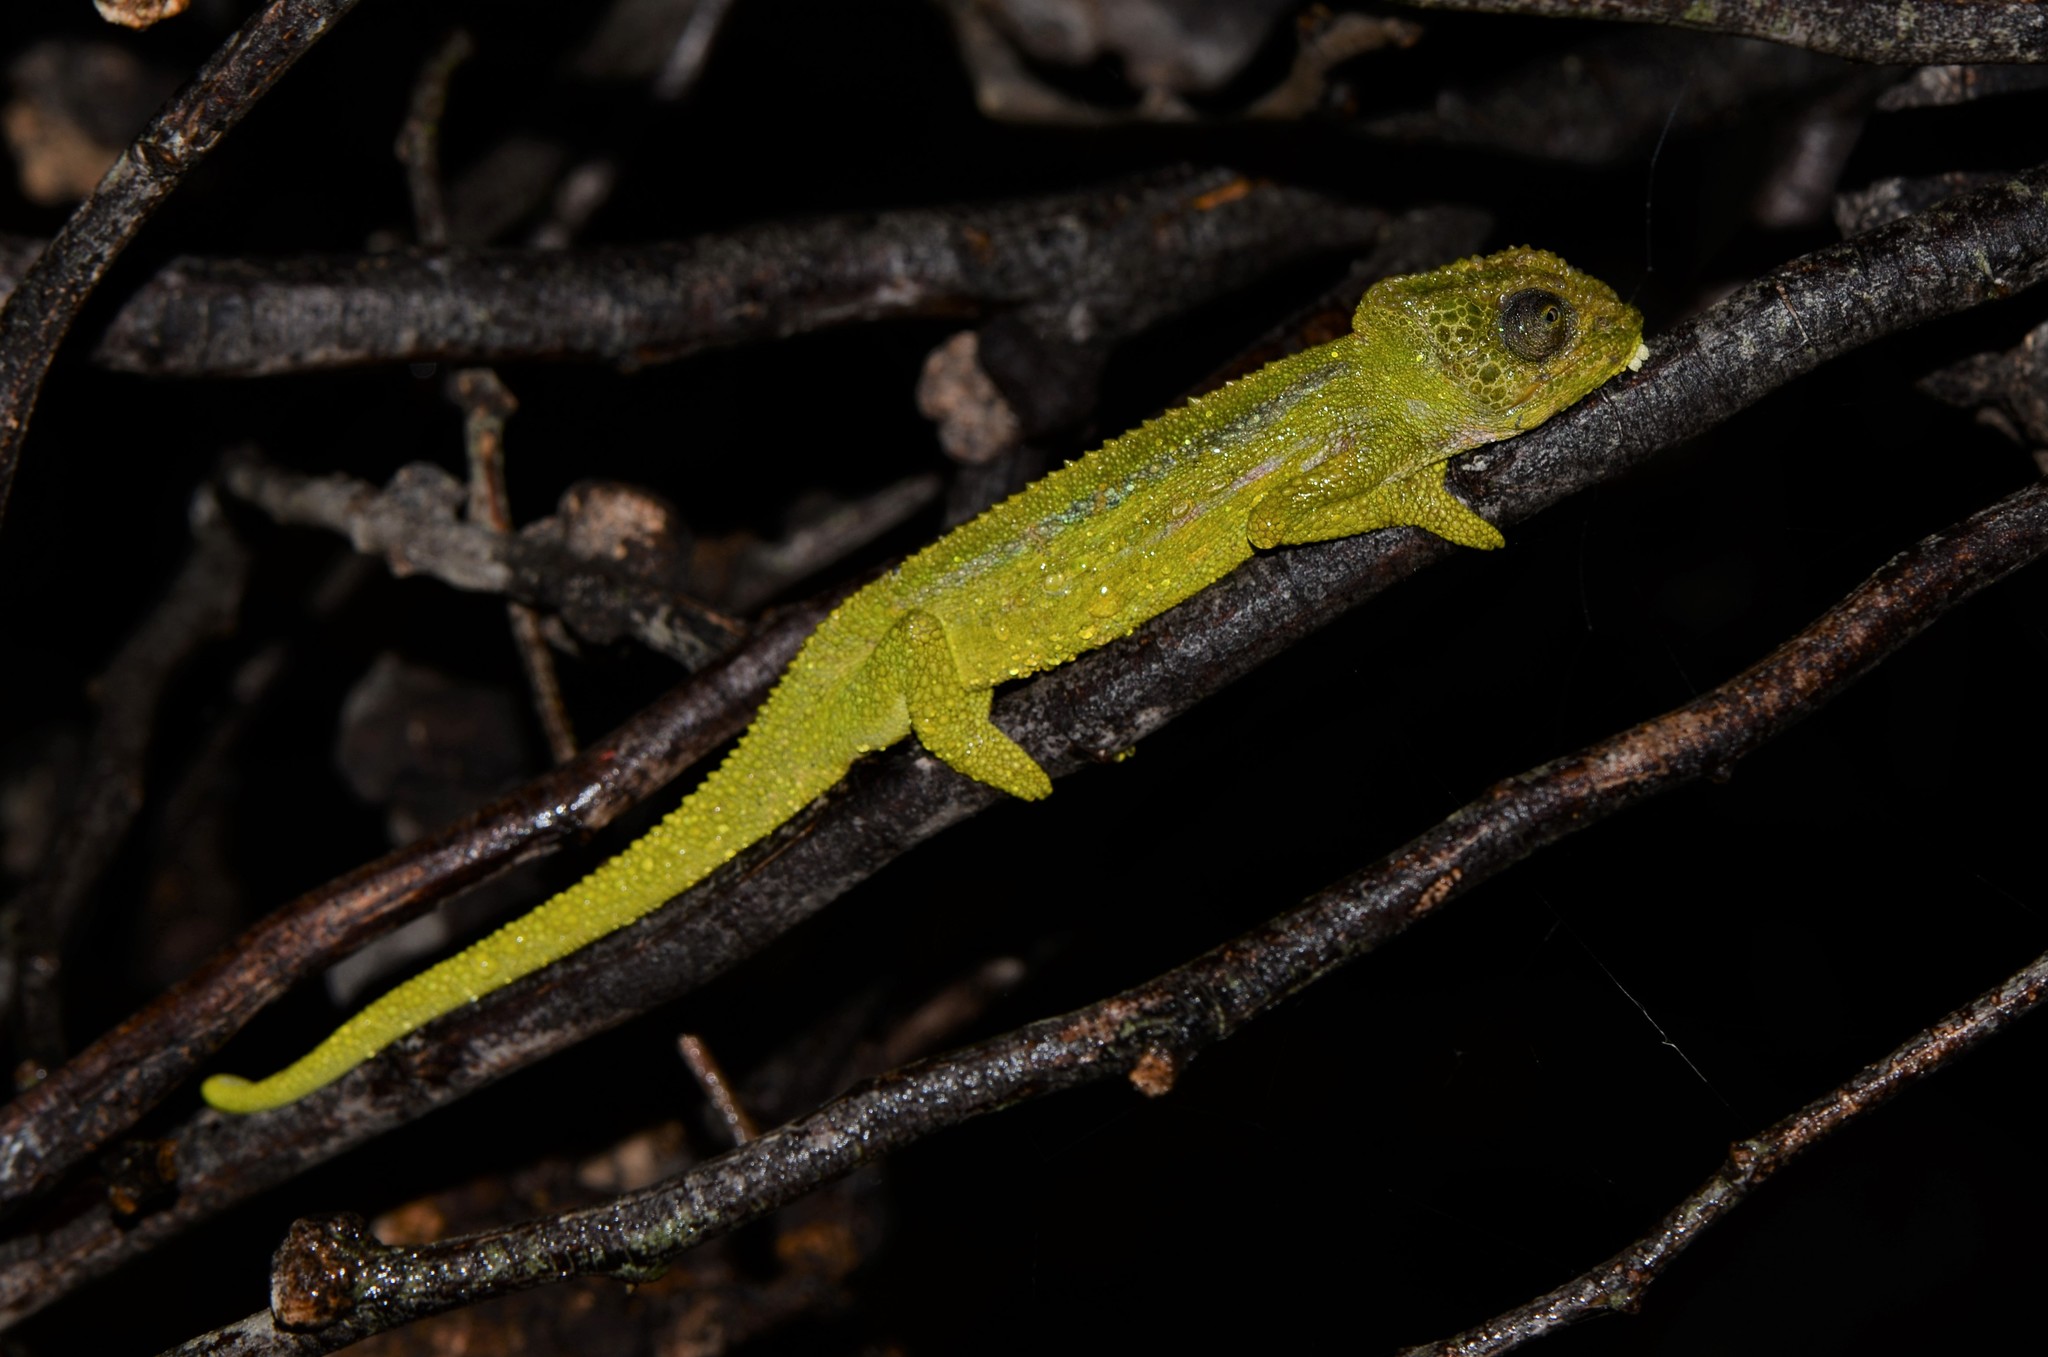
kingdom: Animalia
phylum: Chordata
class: Squamata
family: Chamaeleonidae
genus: Bradypodion
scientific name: Bradypodion pumilum
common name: Cape dwarf chameleon
